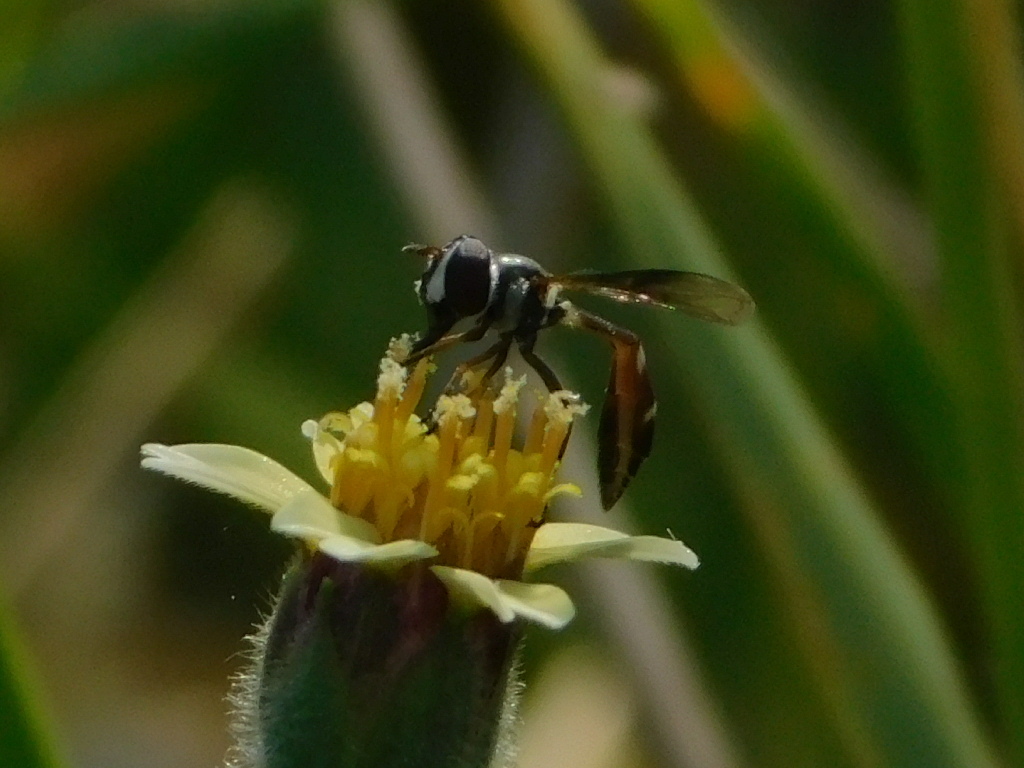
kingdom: Animalia
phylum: Arthropoda
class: Insecta
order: Diptera
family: Syrphidae
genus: Dioprosopa
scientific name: Dioprosopa clavatus
